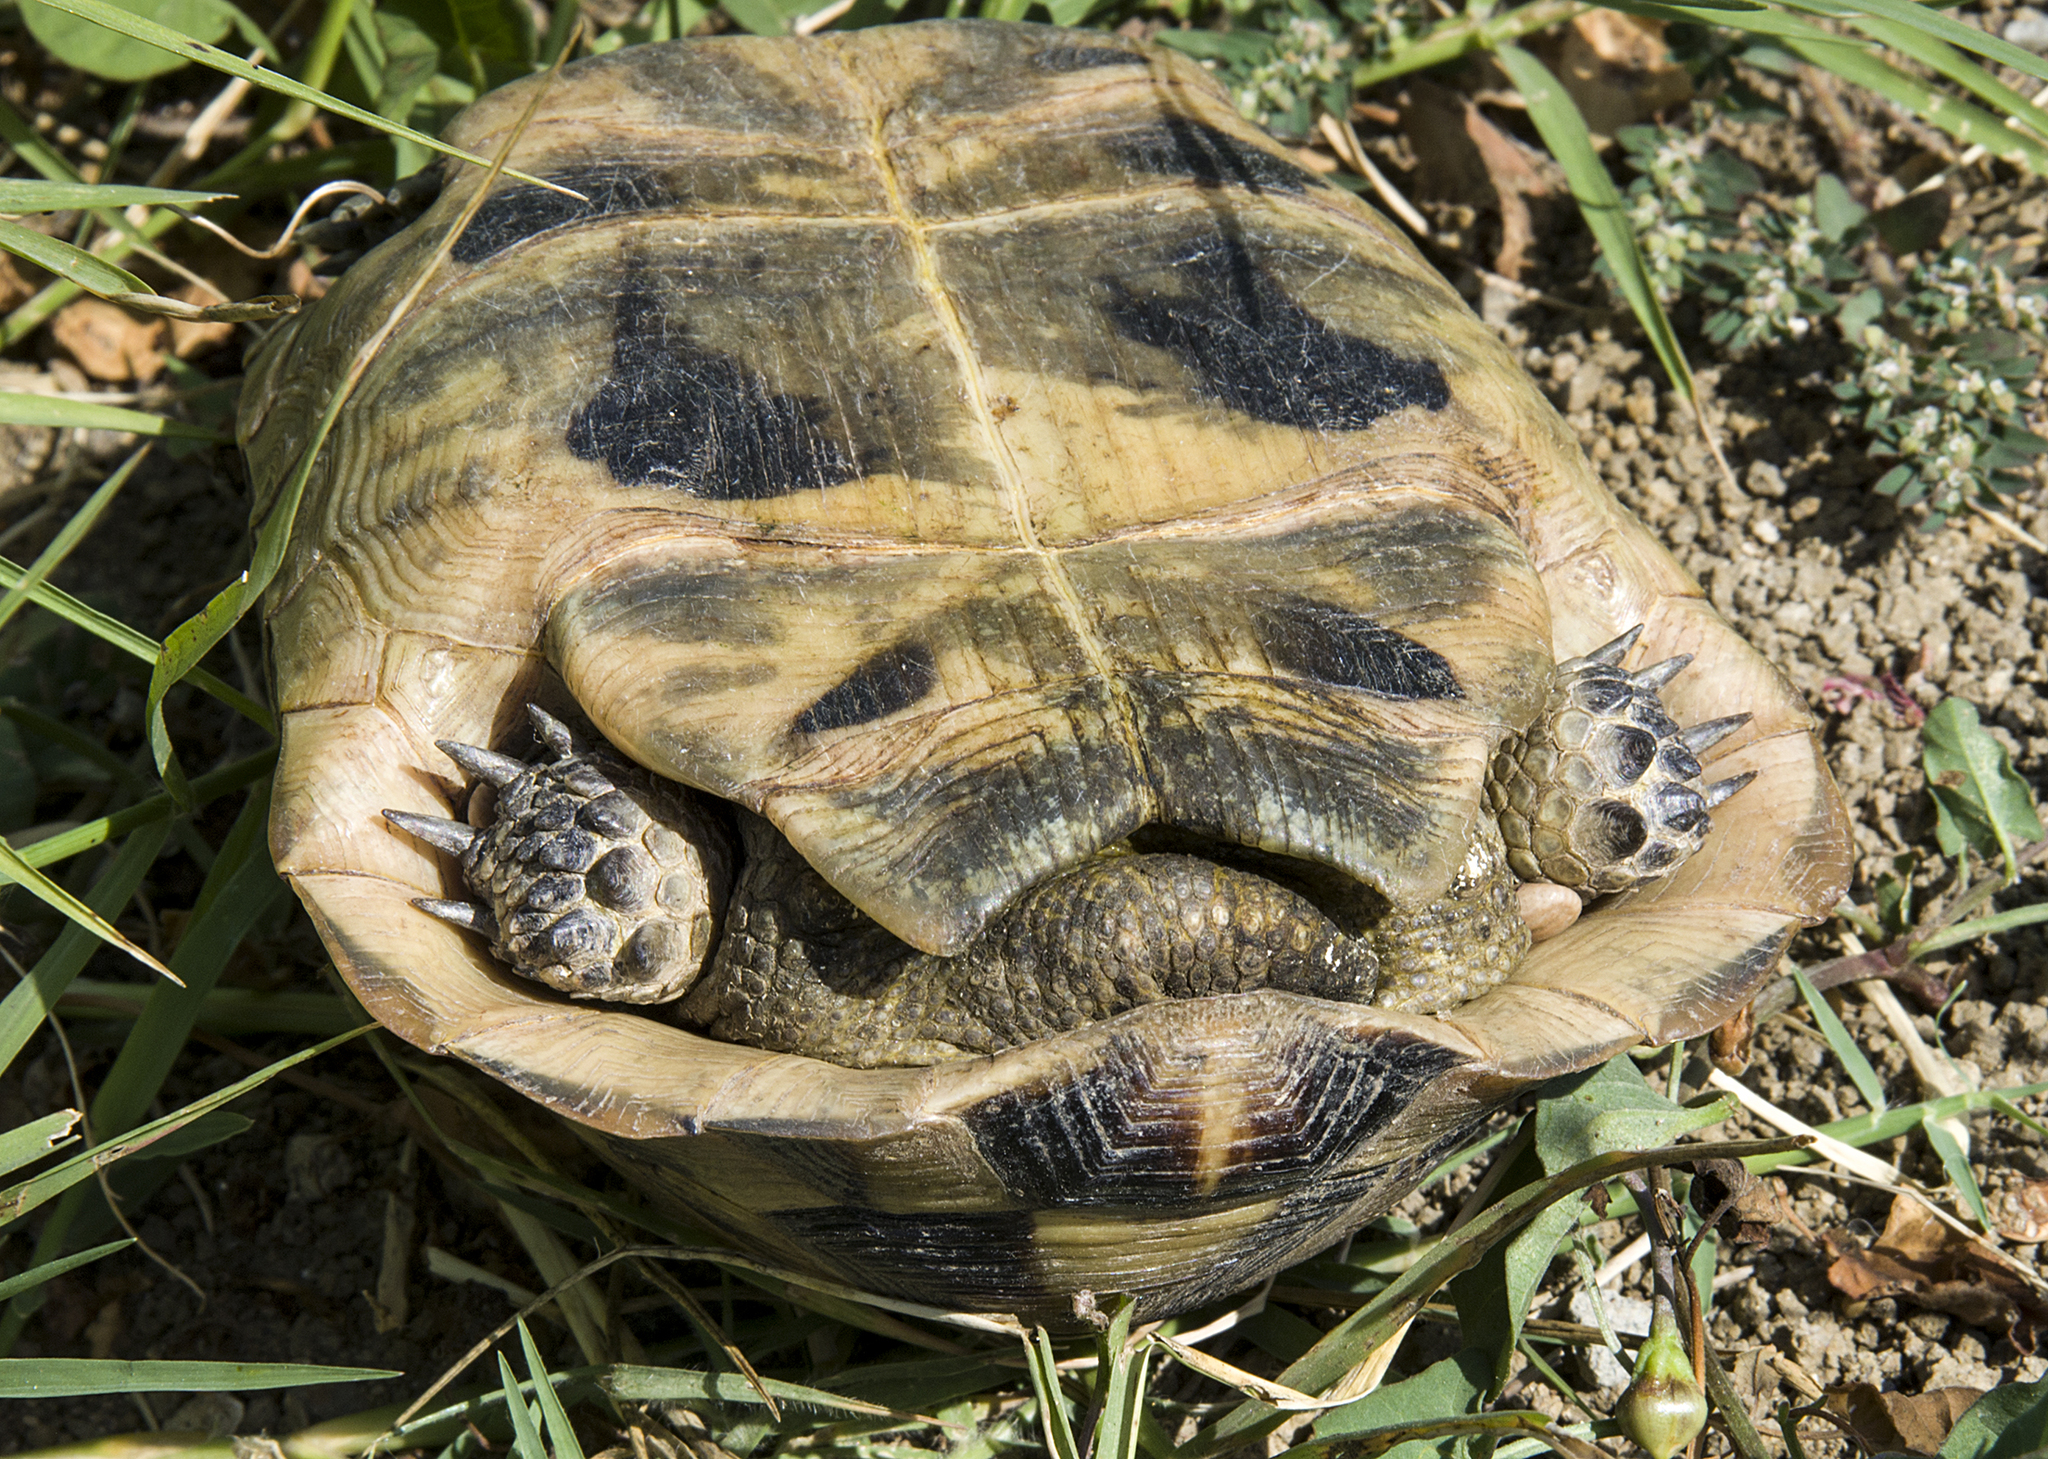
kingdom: Animalia
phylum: Chordata
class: Testudines
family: Testudinidae
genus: Testudo
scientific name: Testudo graeca
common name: Common tortoise
